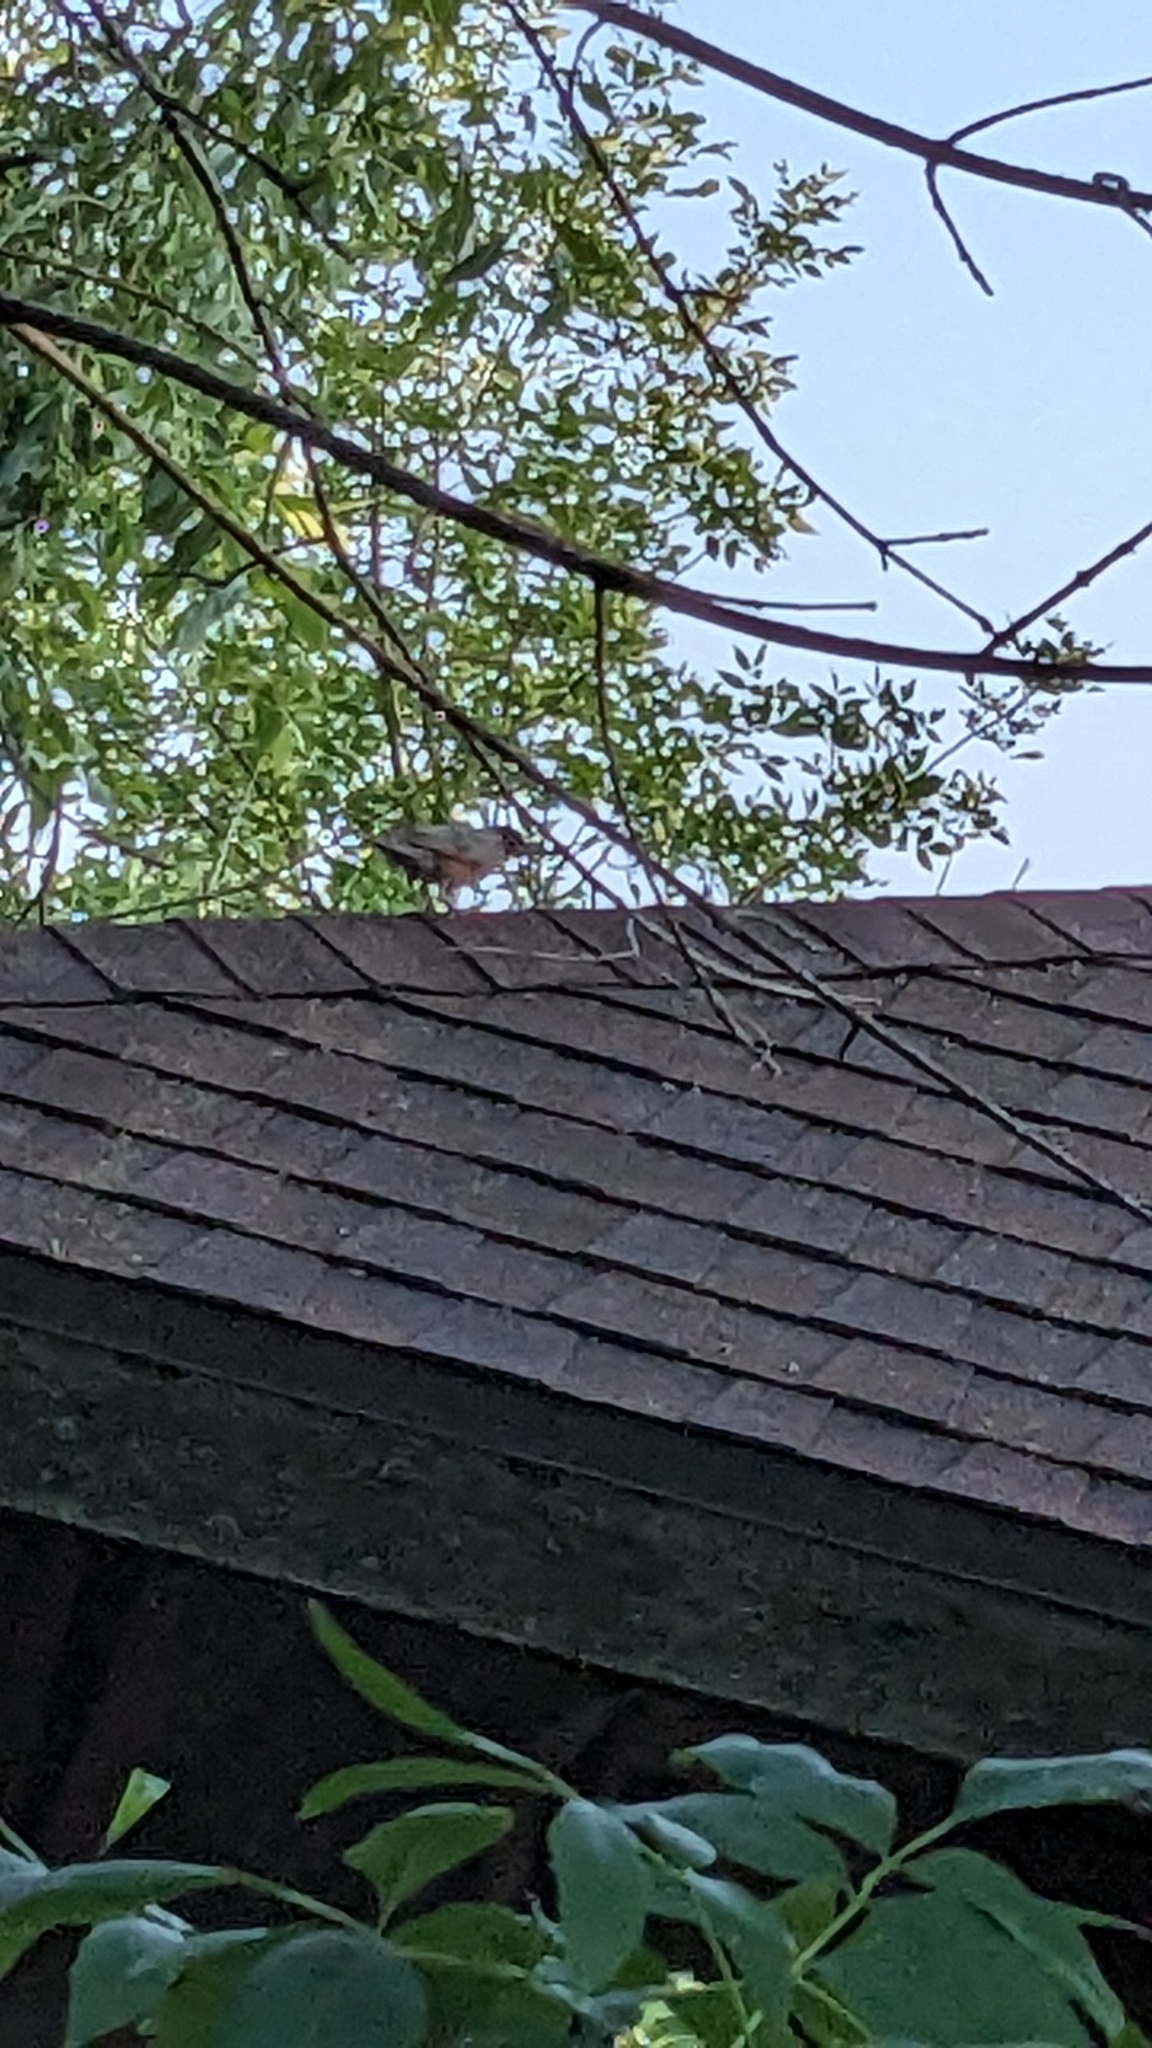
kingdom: Animalia
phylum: Chordata
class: Aves
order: Passeriformes
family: Turdidae
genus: Turdus
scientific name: Turdus migratorius
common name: American robin
